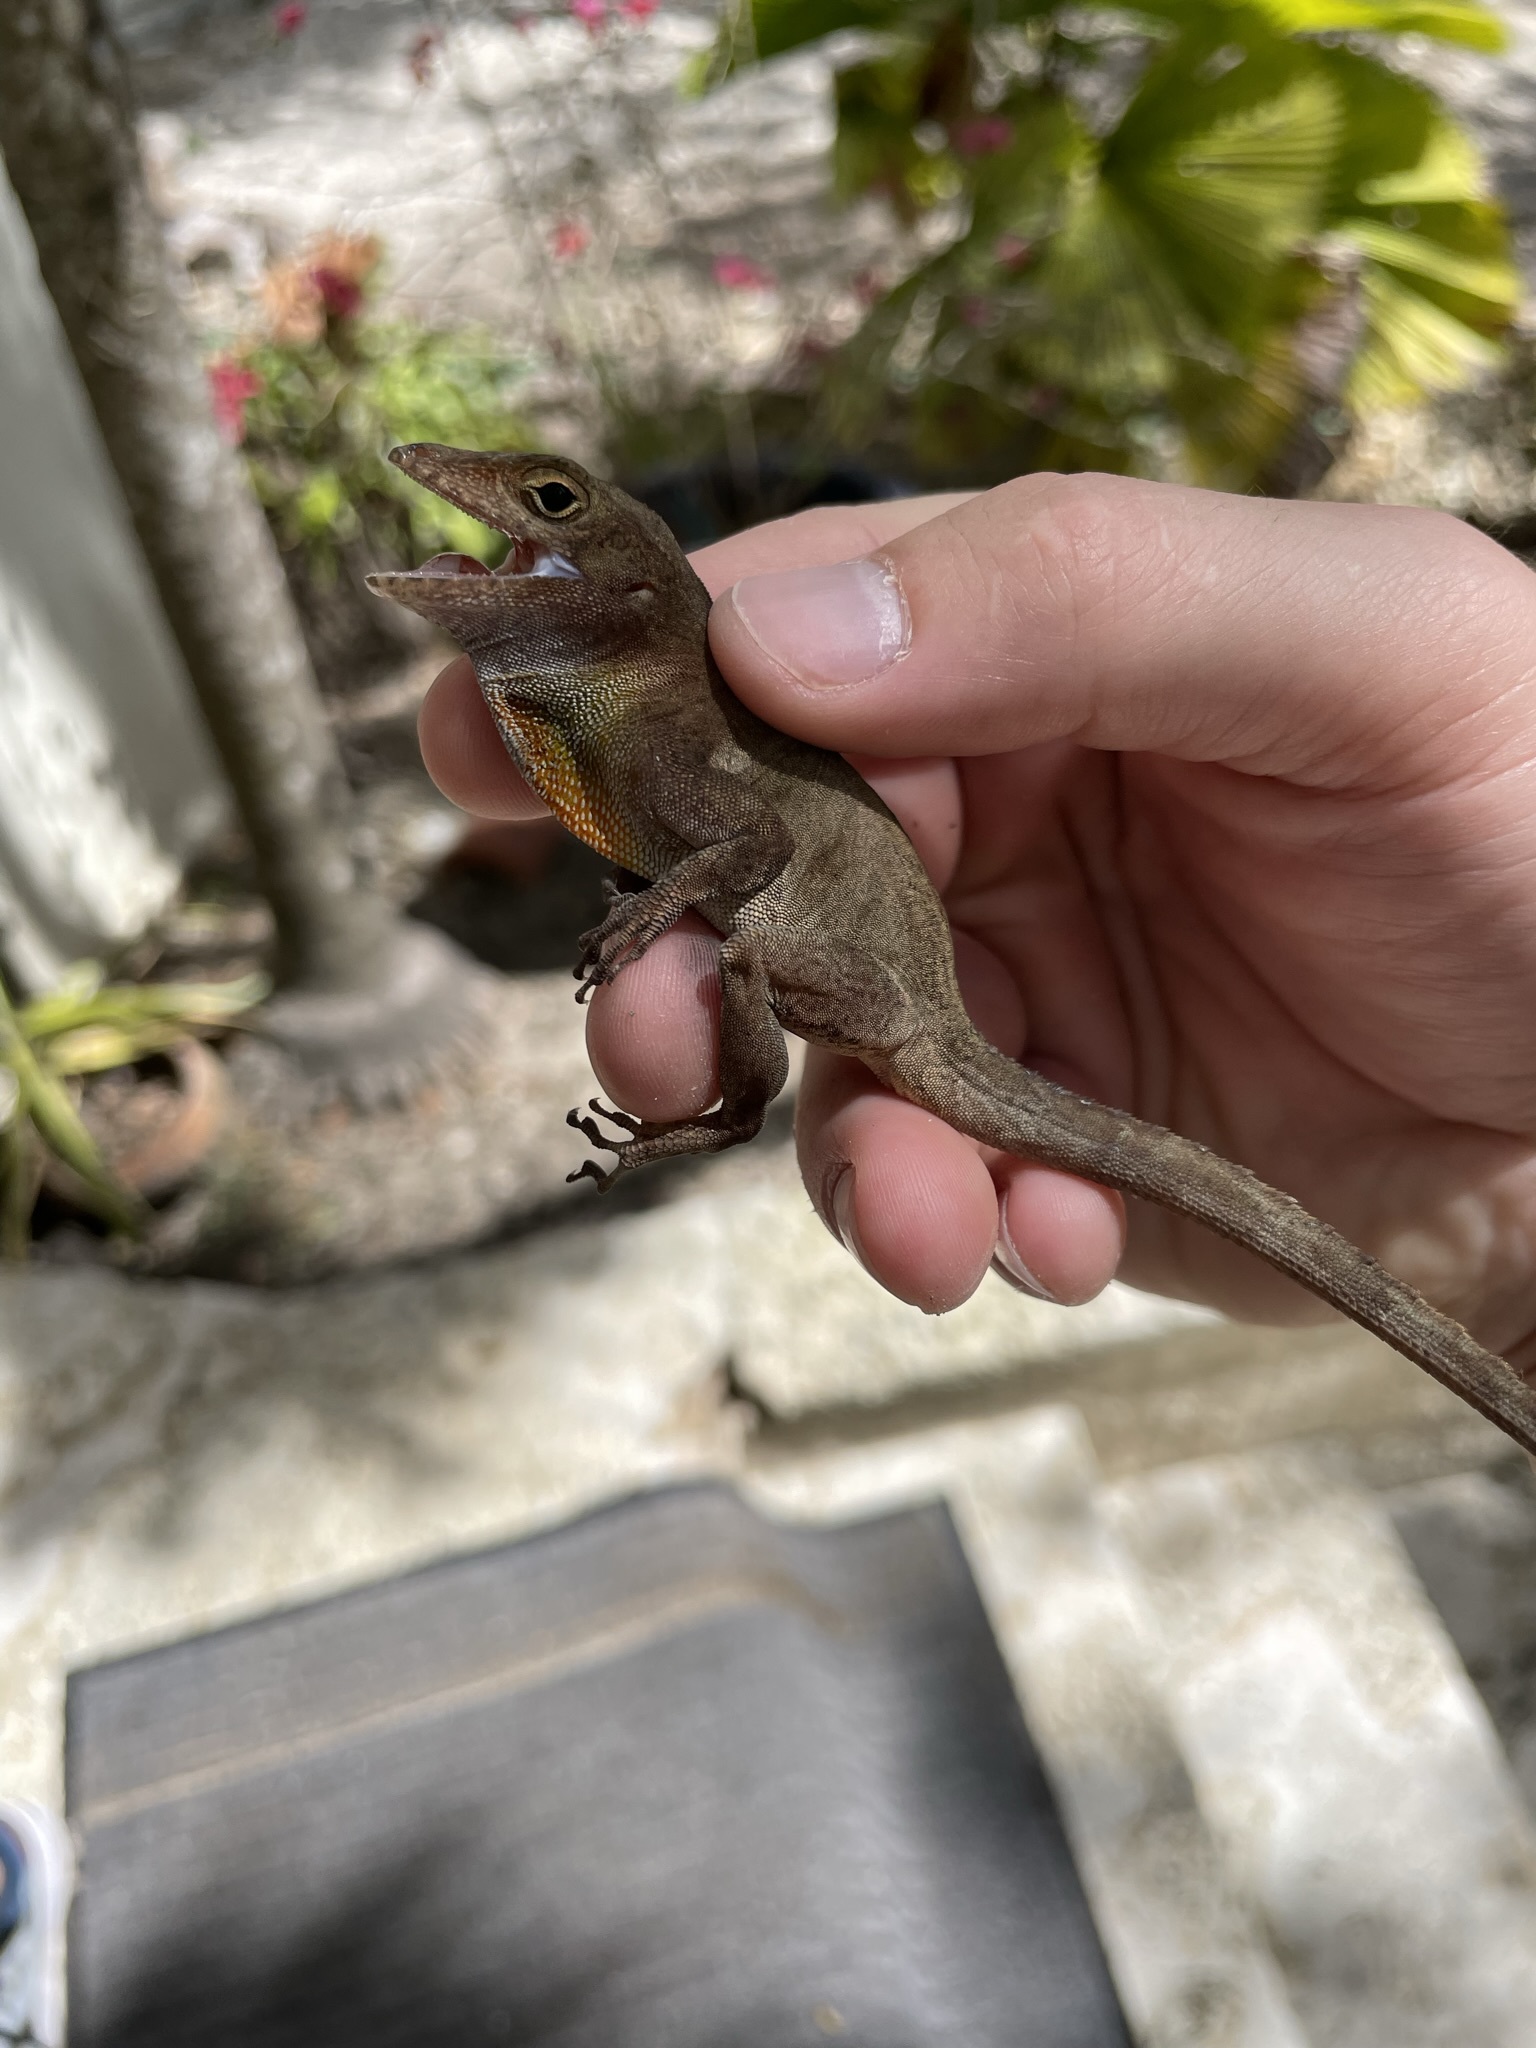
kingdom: Animalia
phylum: Chordata
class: Squamata
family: Dactyloidae
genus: Anolis
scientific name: Anolis cristatellus
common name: Crested anole
